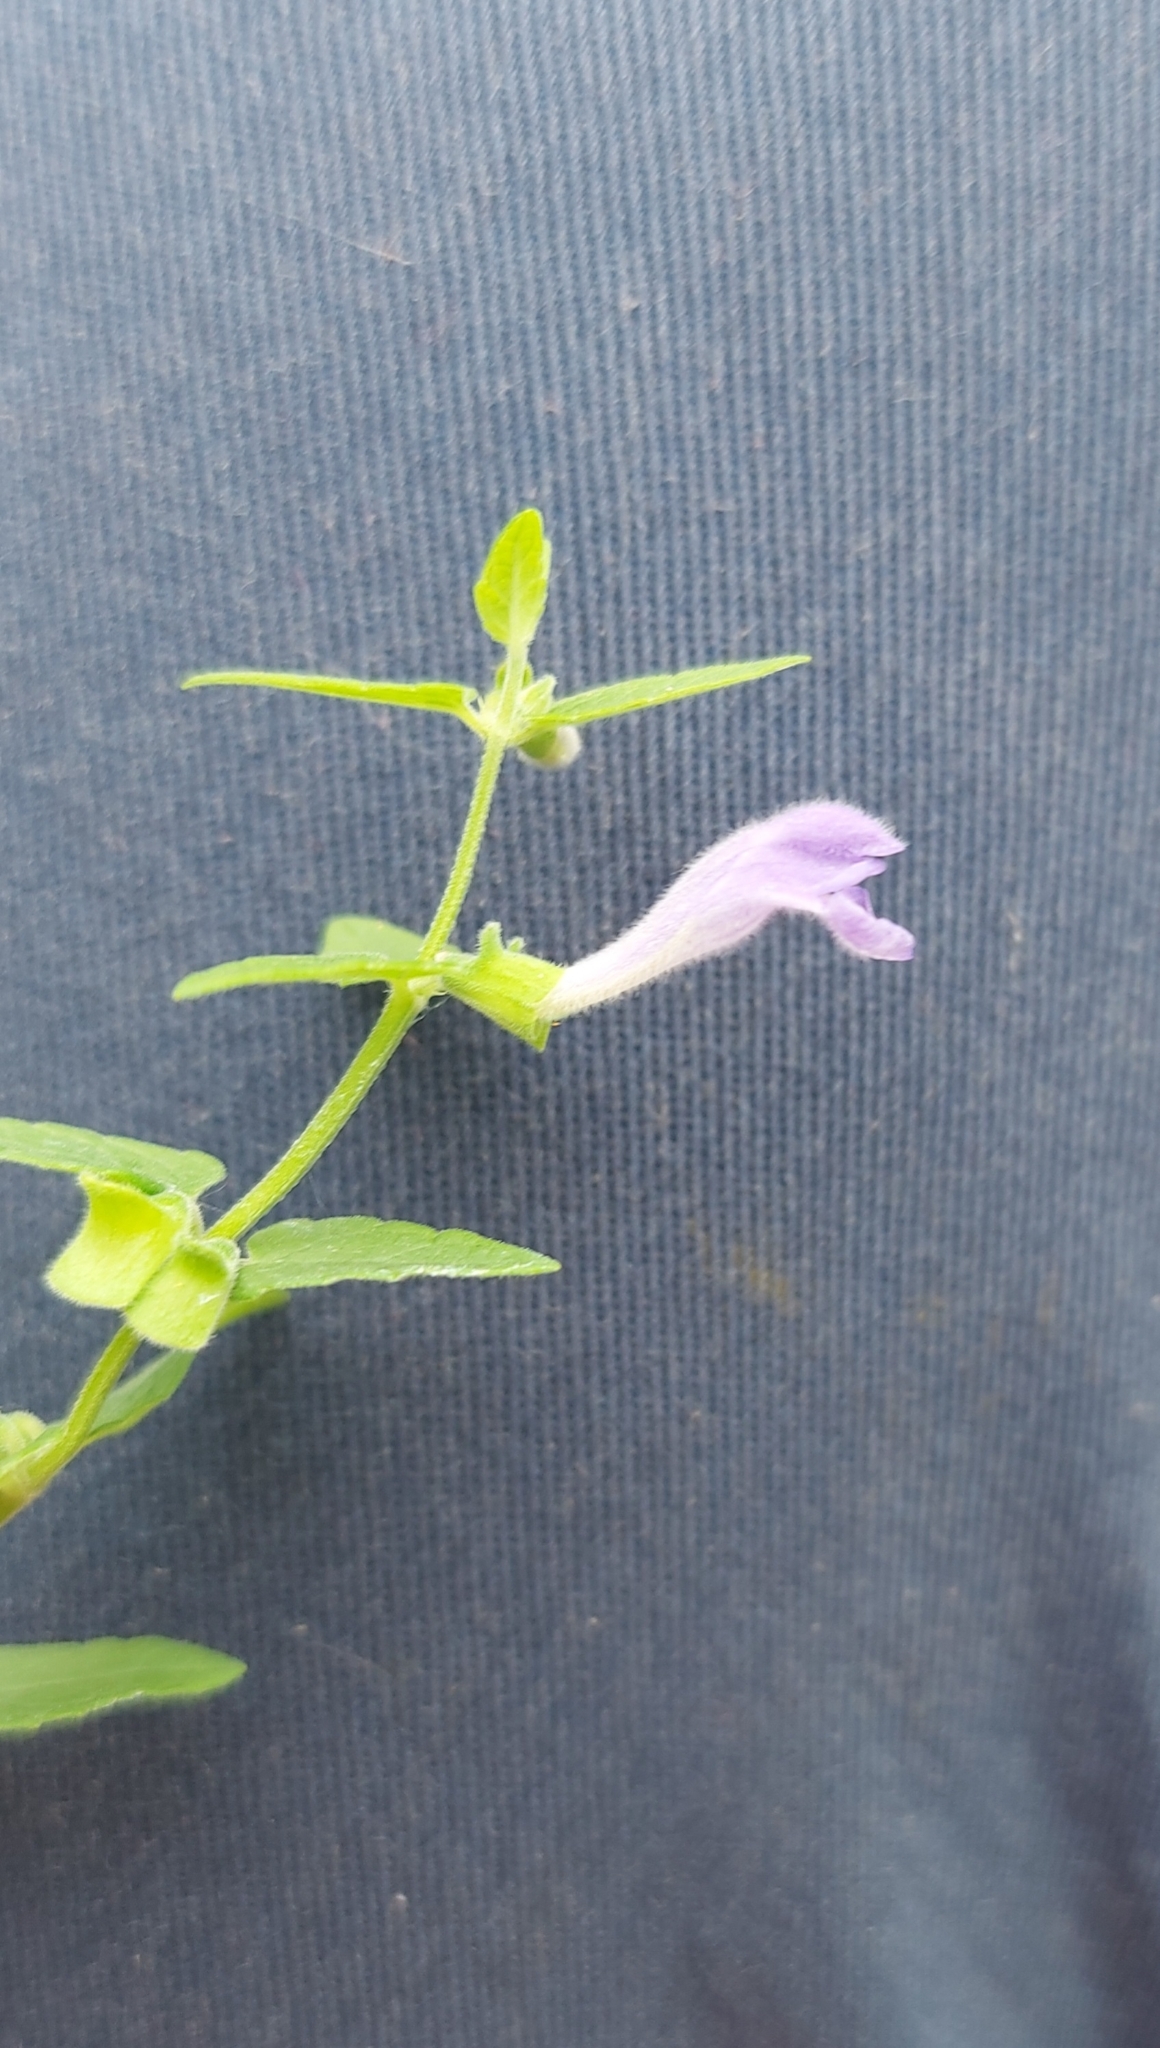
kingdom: Plantae
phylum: Tracheophyta
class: Magnoliopsida
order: Lamiales
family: Lamiaceae
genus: Scutellaria
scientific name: Scutellaria galericulata
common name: Skullcap
